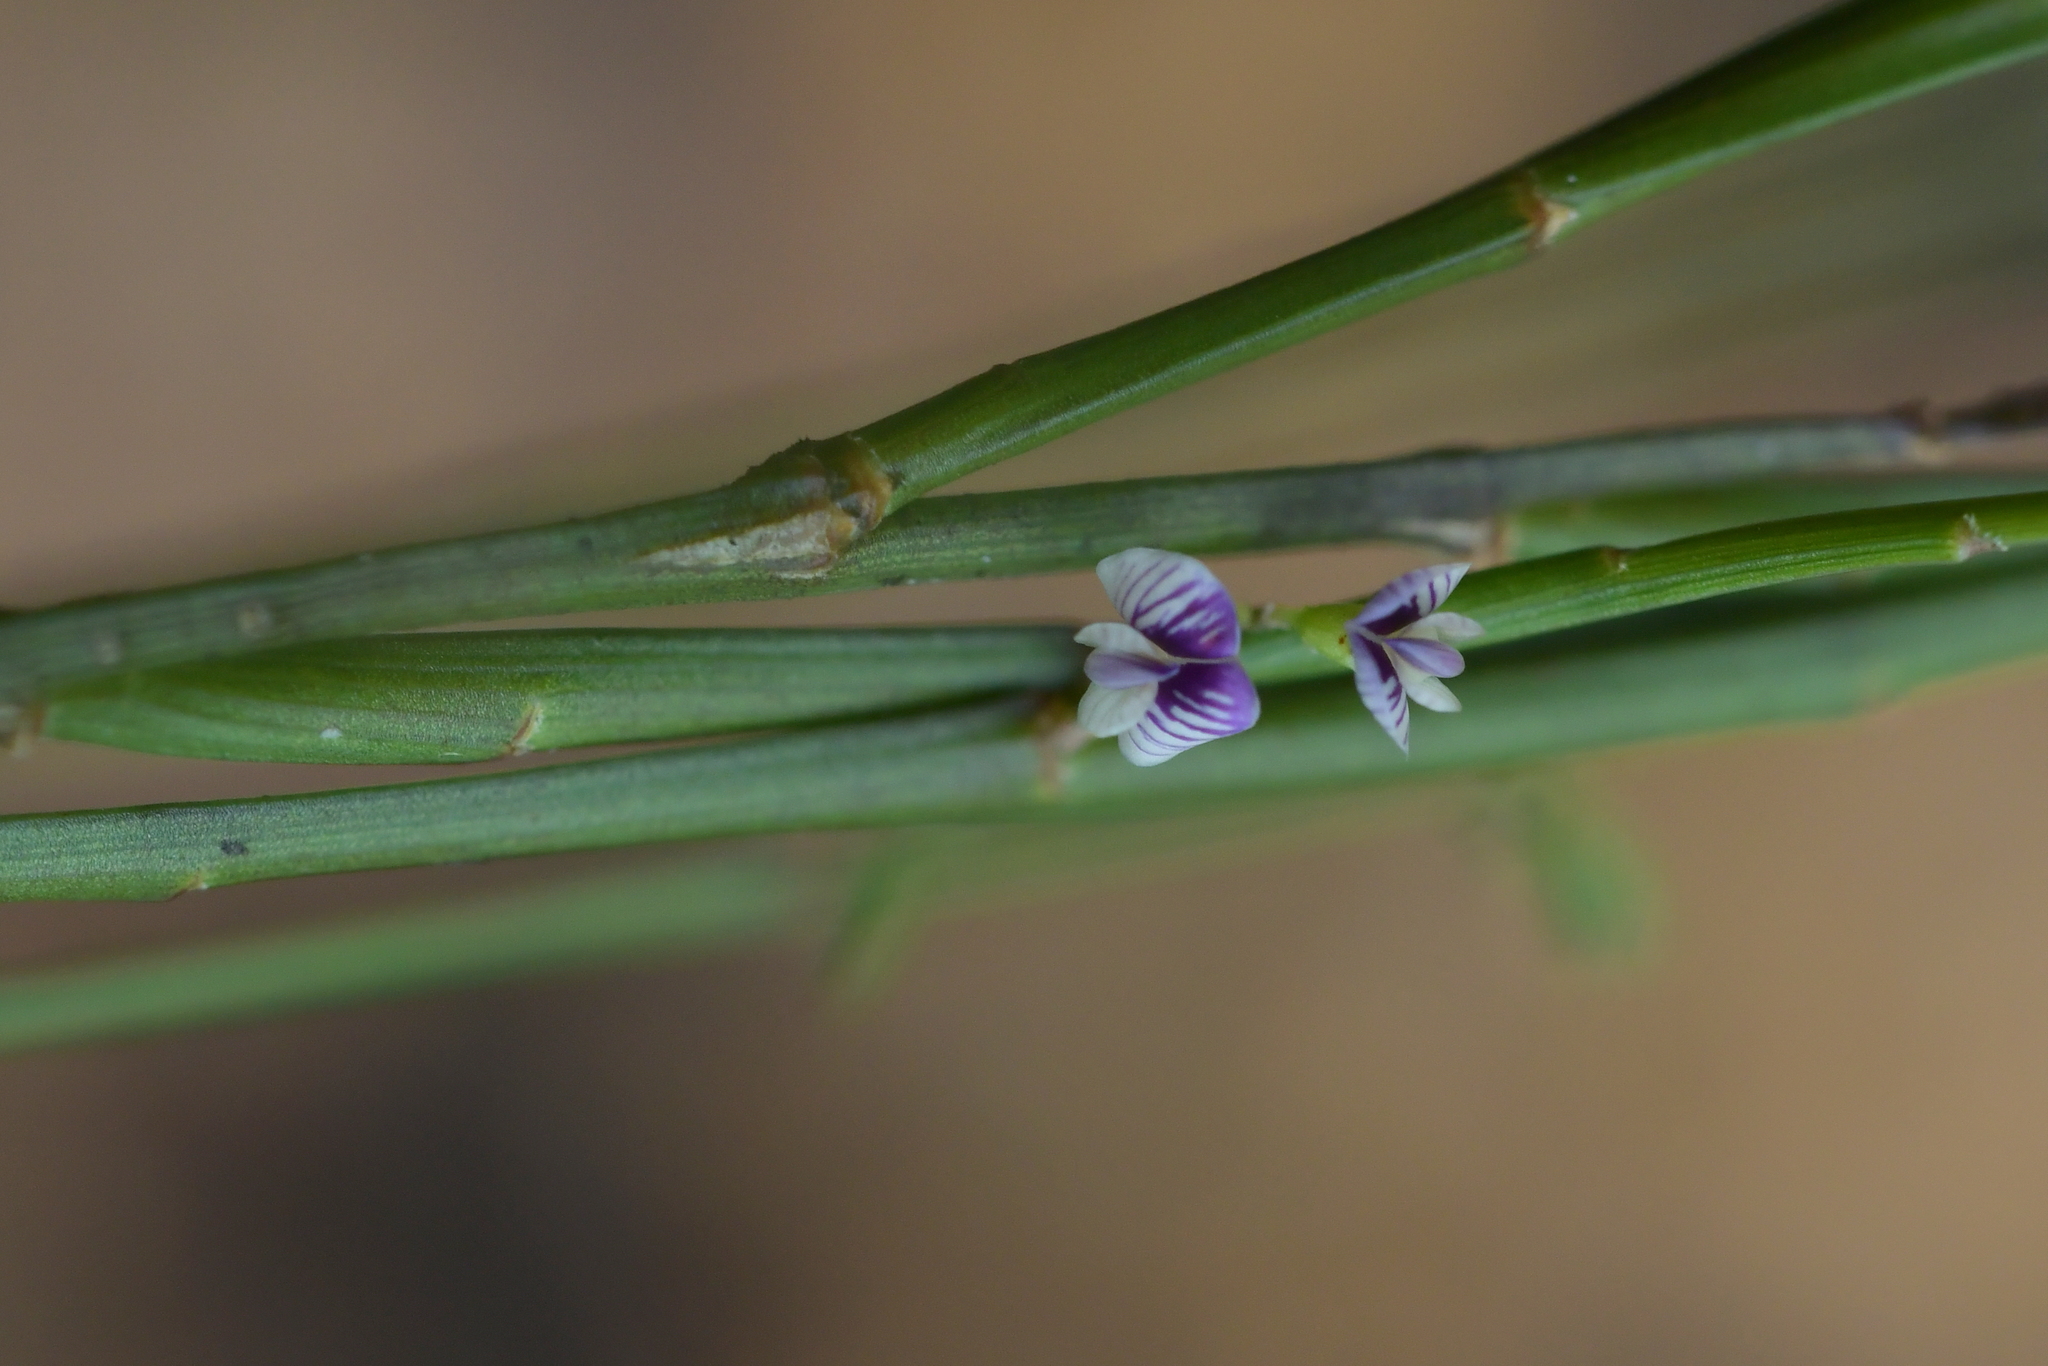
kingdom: Plantae
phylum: Tracheophyta
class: Magnoliopsida
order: Fabales
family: Fabaceae
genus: Carmichaelia
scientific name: Carmichaelia australis
